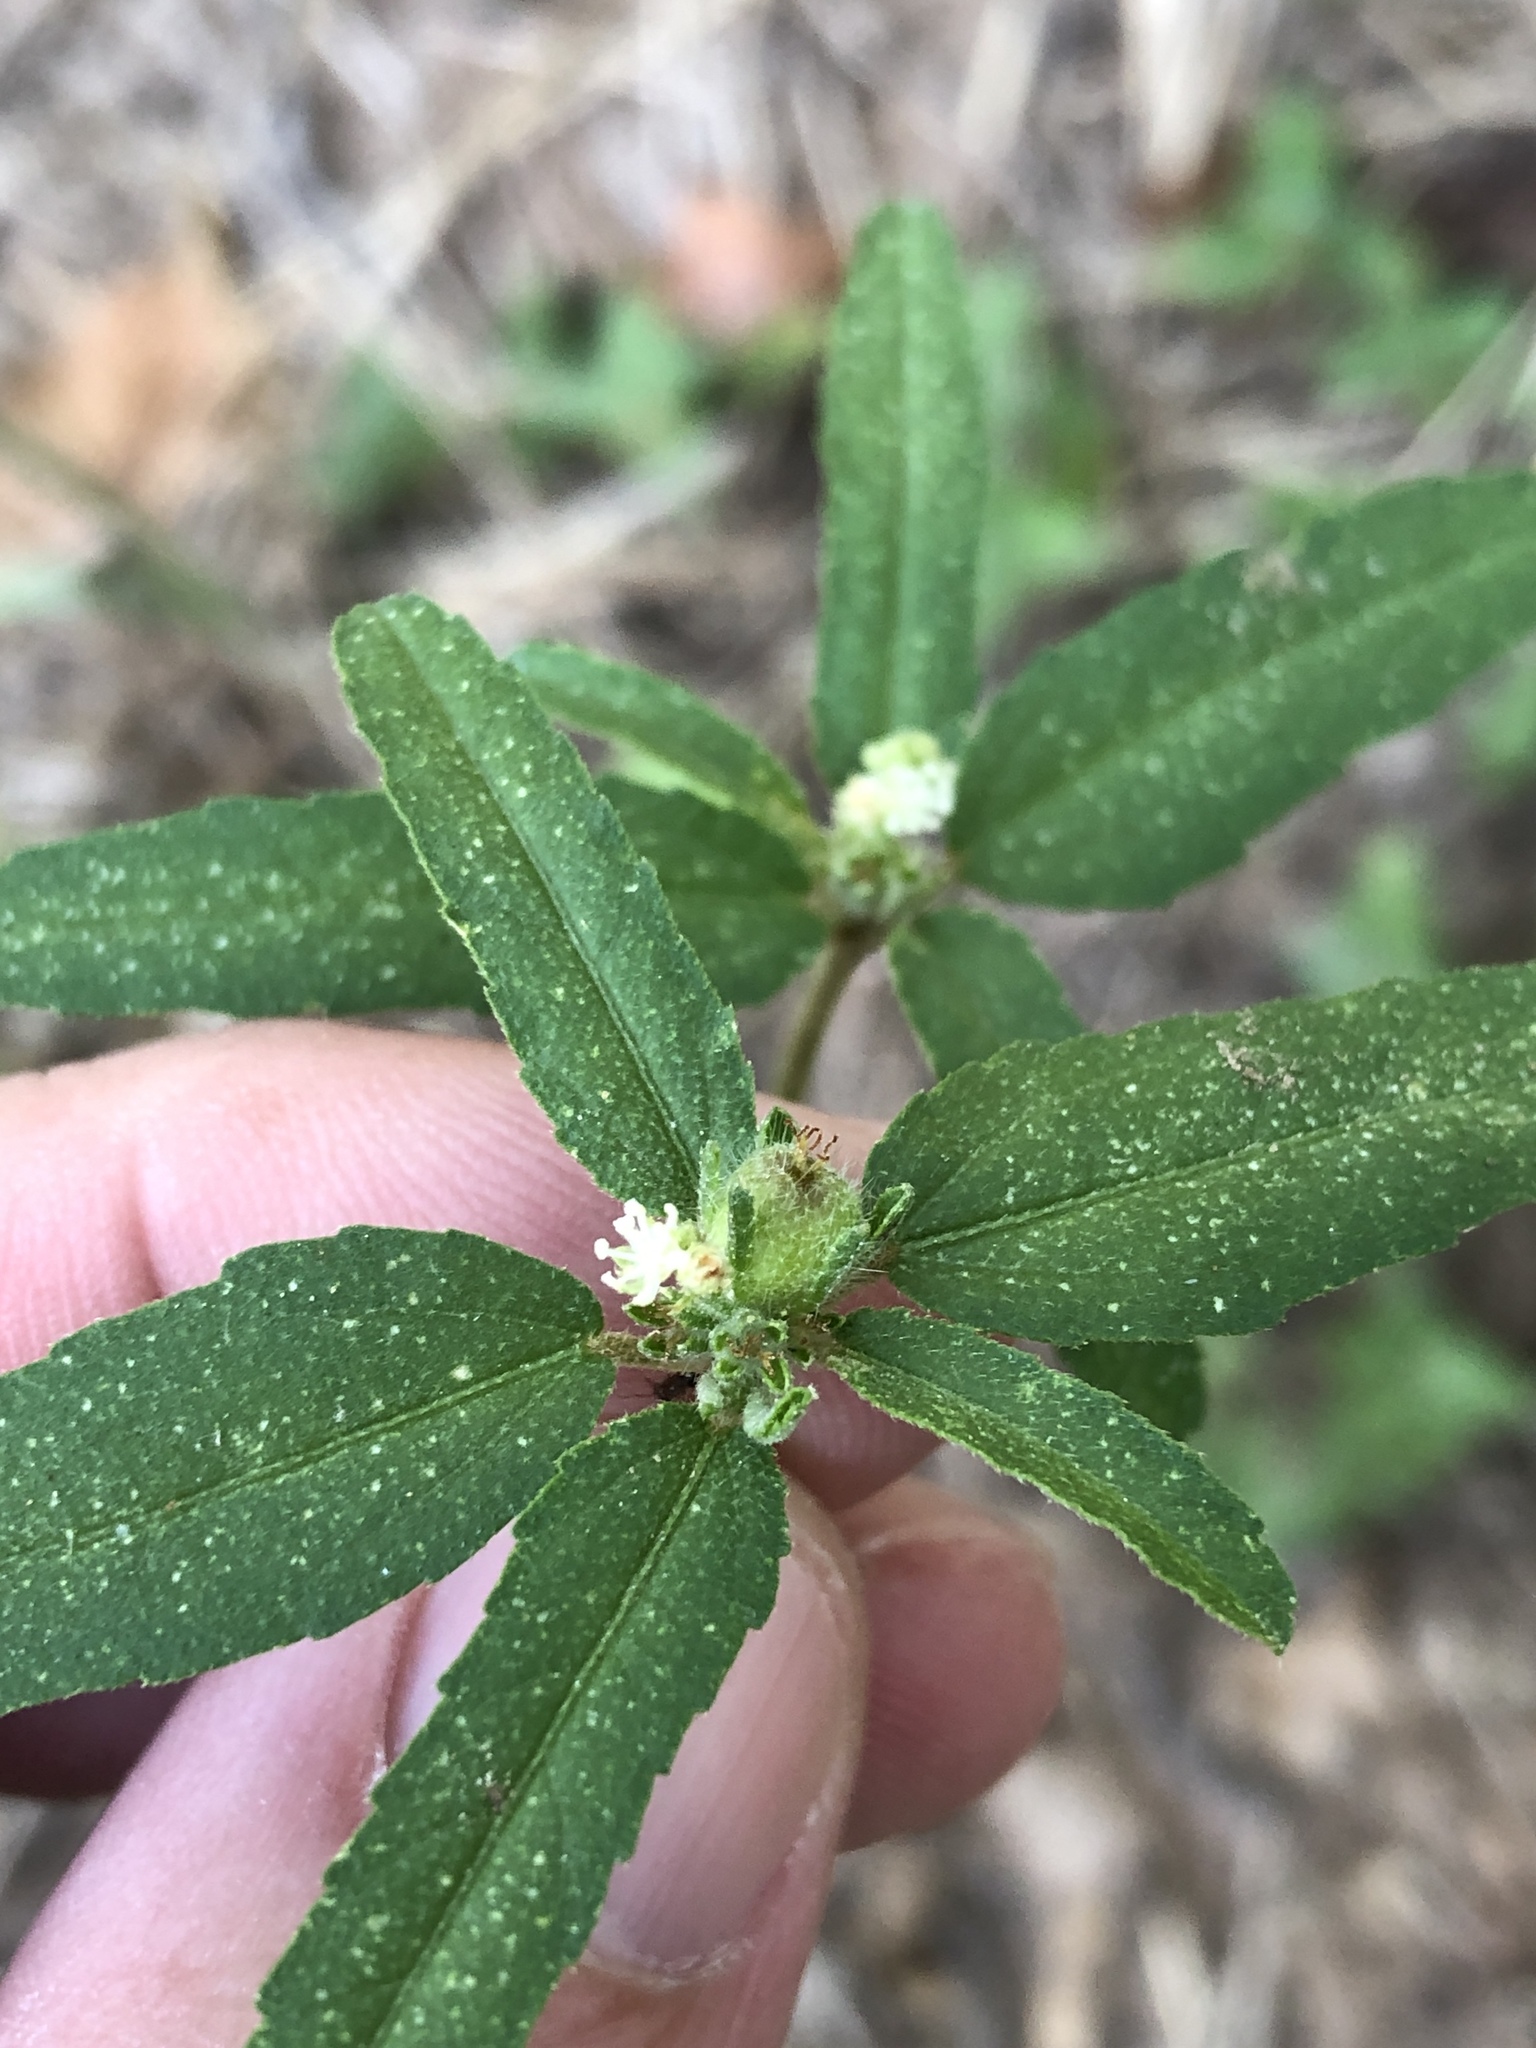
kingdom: Plantae
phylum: Tracheophyta
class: Magnoliopsida
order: Malpighiales
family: Euphorbiaceae
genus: Croton
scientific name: Croton glandulosus
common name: Tropic croton
